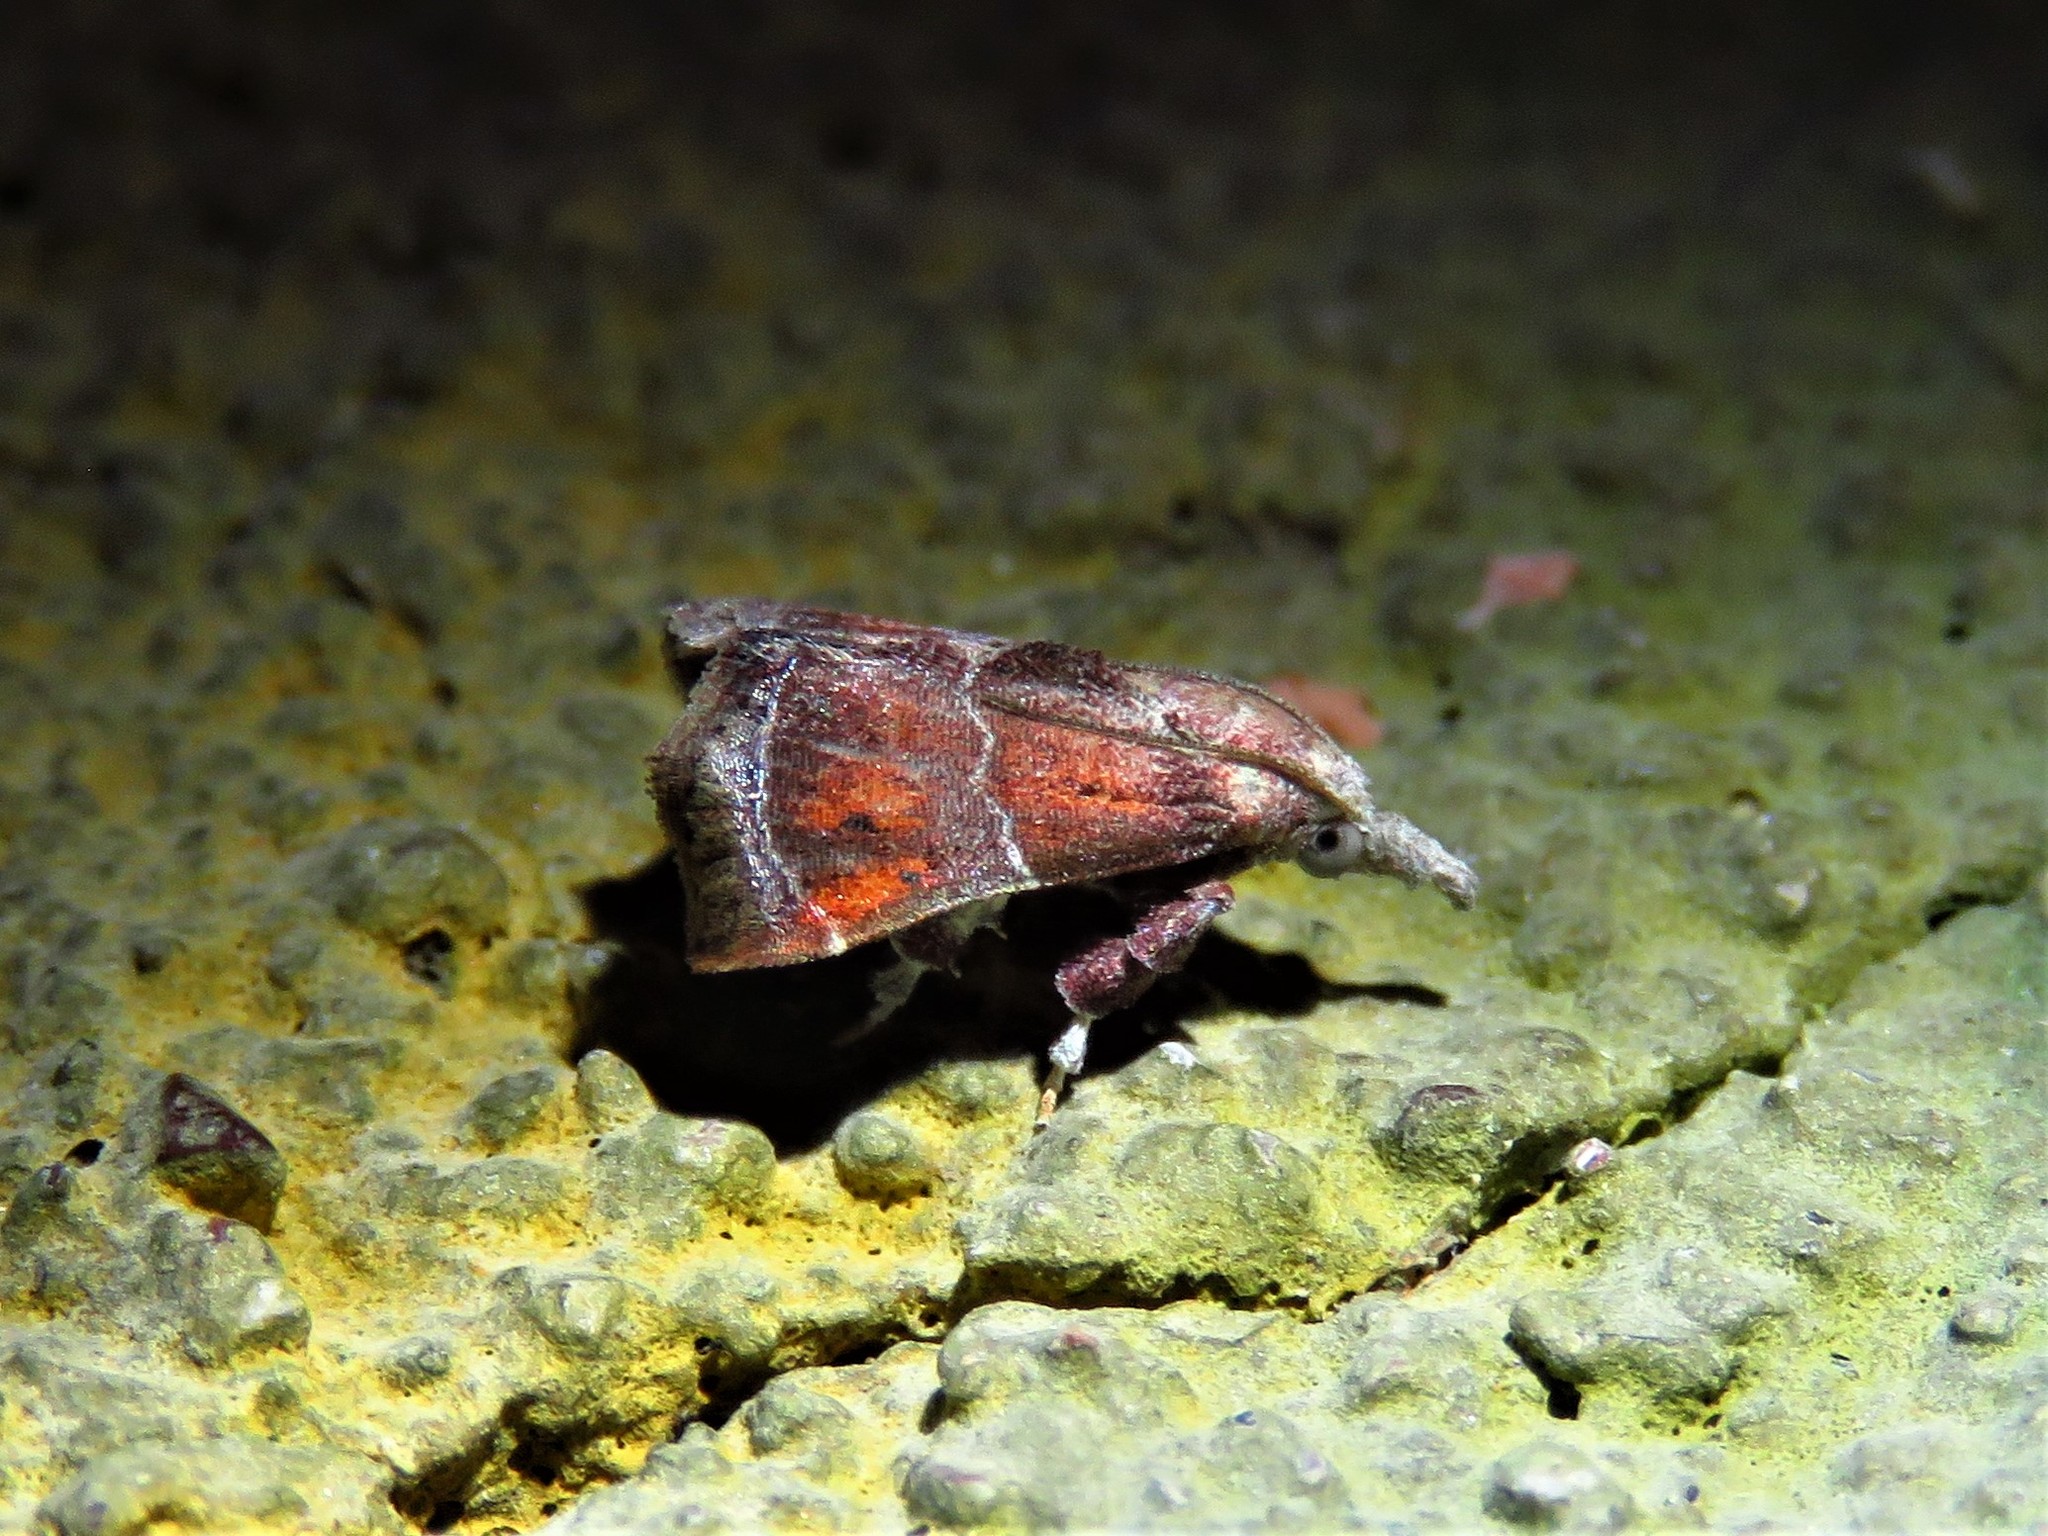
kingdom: Animalia
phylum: Arthropoda
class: Insecta
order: Lepidoptera
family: Pyralidae
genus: Streptopalpia
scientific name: Streptopalpia minusculalis
